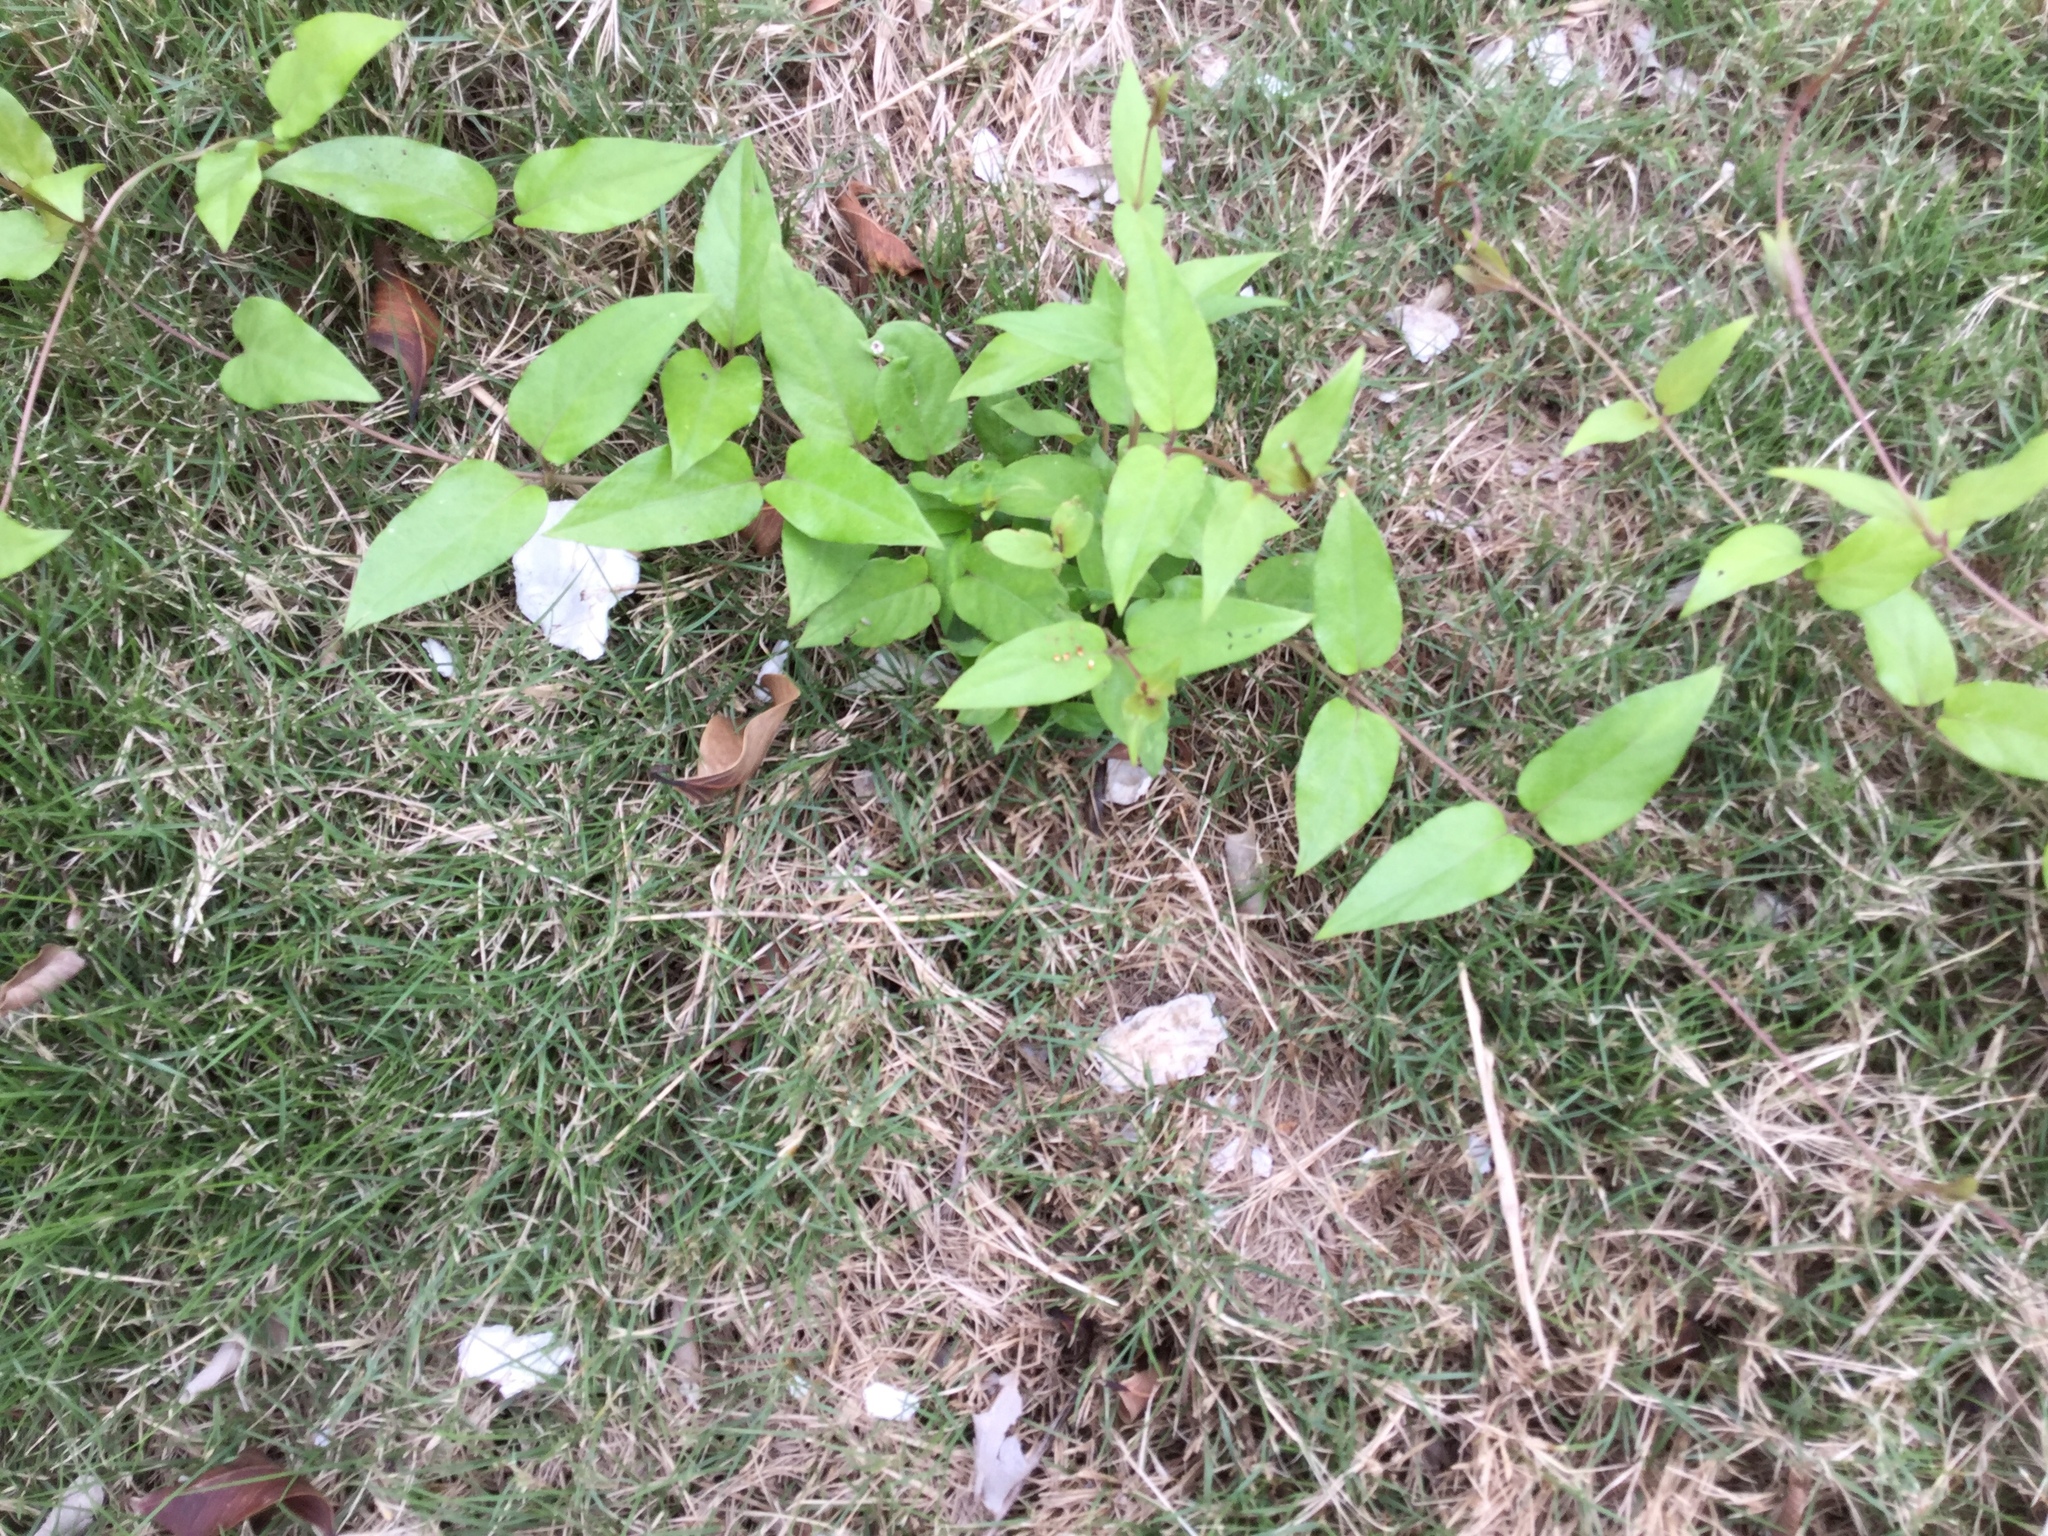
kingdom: Plantae
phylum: Tracheophyta
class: Magnoliopsida
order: Gentianales
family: Rubiaceae
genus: Paederia
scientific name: Paederia foetida
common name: Stinkvine
